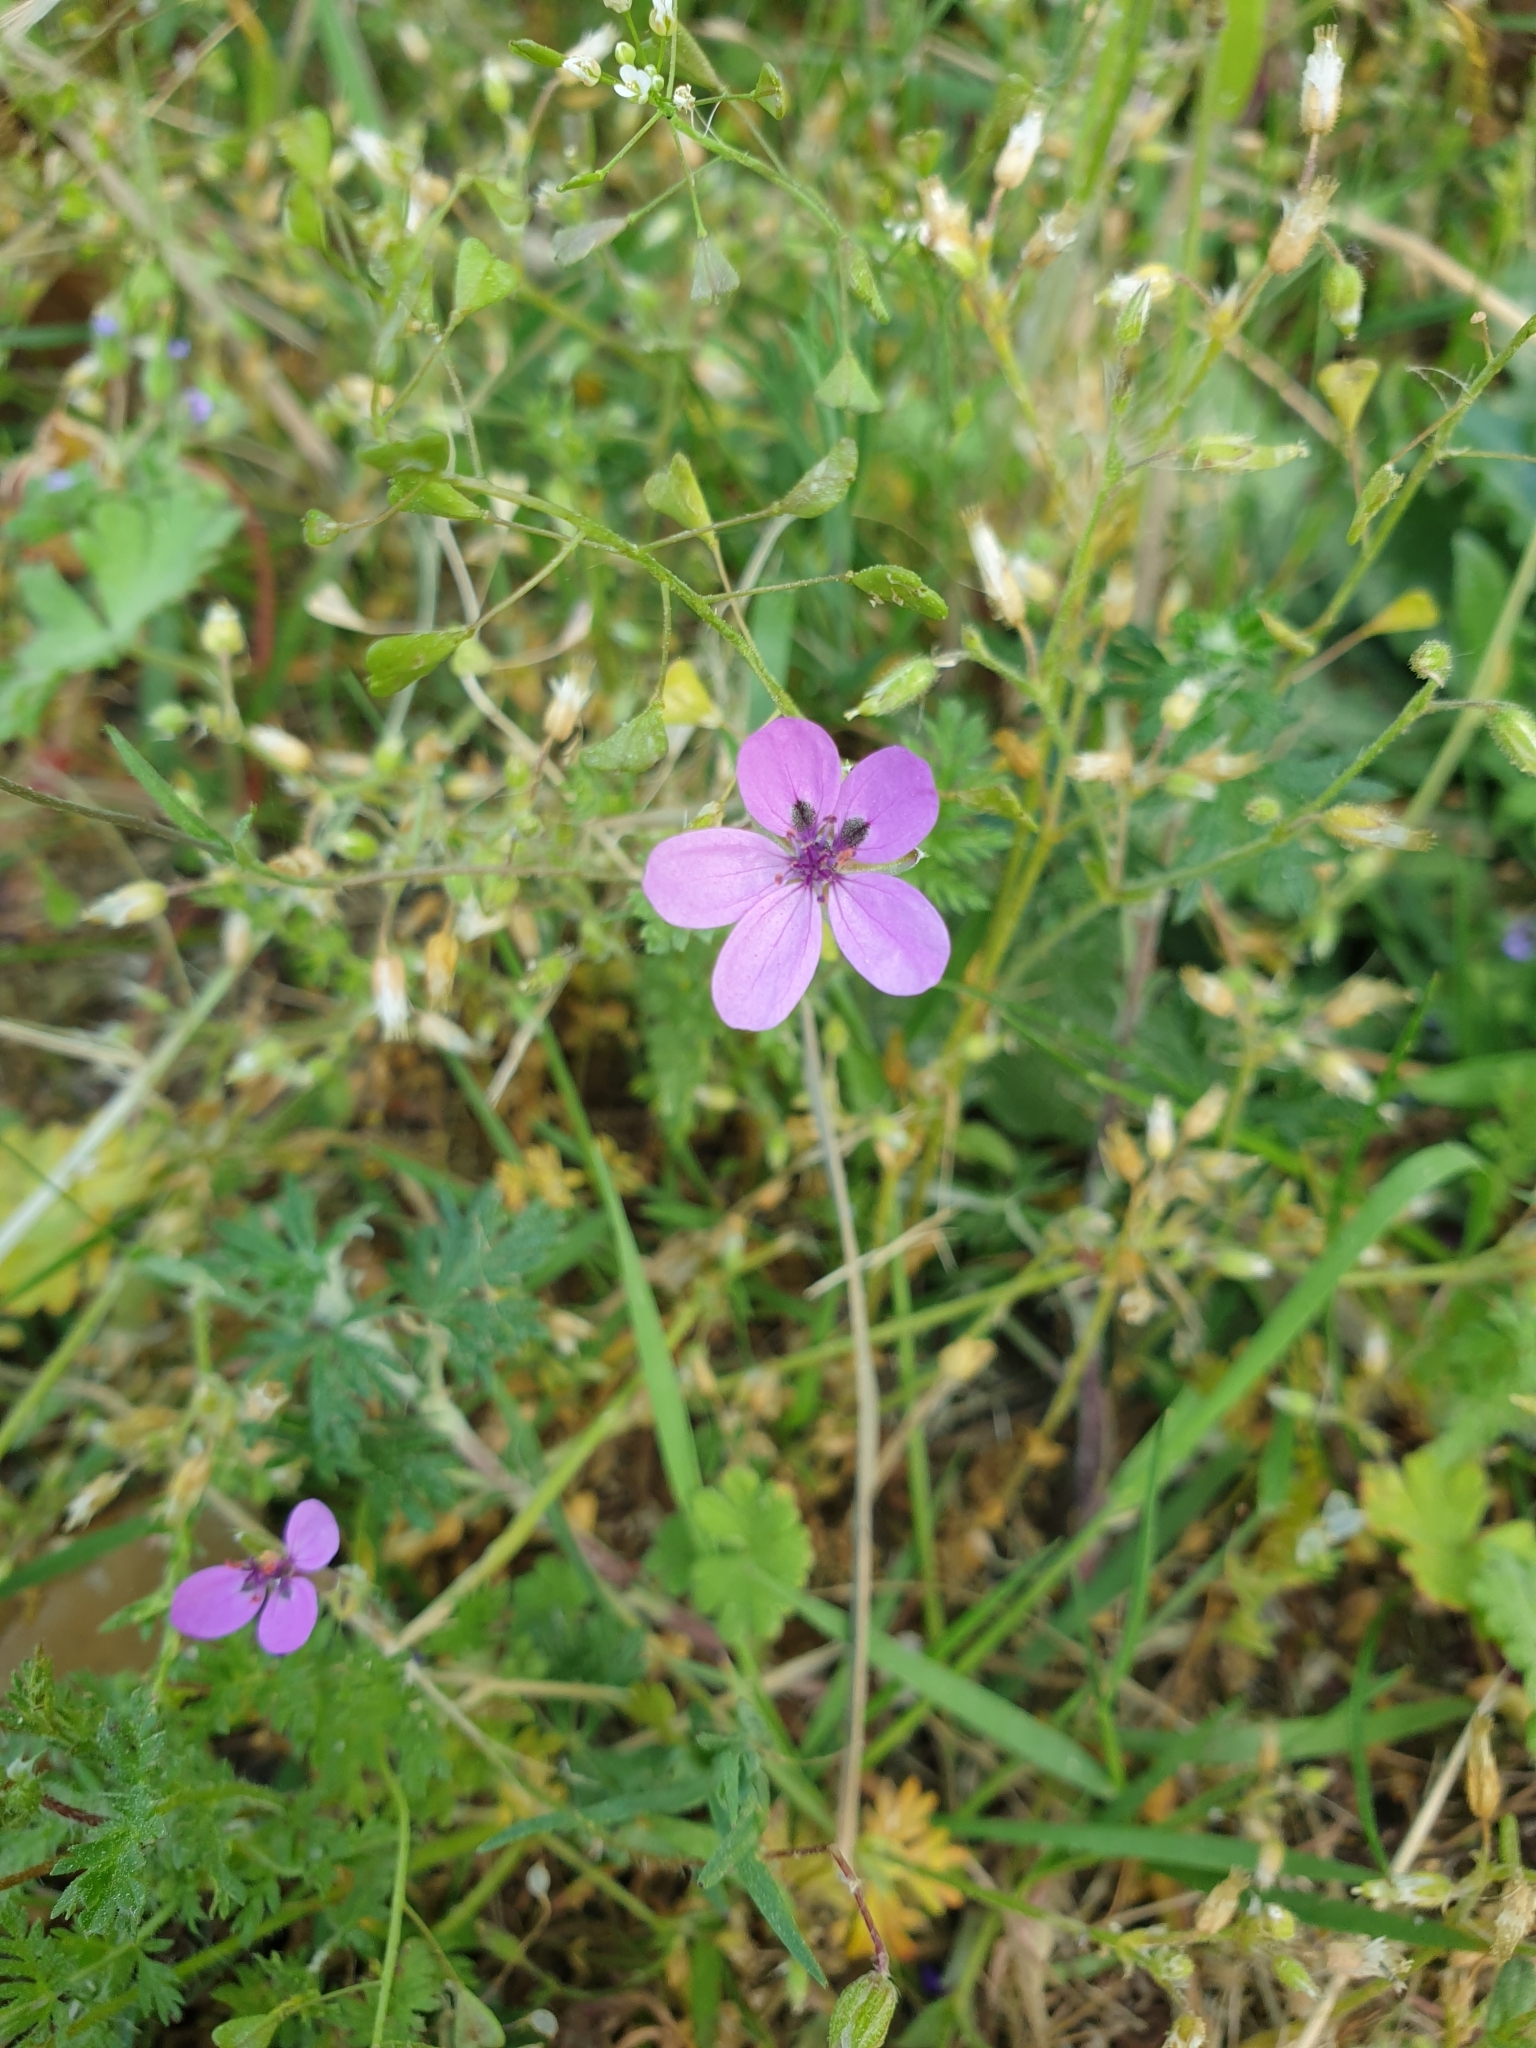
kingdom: Plantae
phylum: Tracheophyta
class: Magnoliopsida
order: Geraniales
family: Geraniaceae
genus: Erodium
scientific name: Erodium cicutarium
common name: Common stork's-bill
